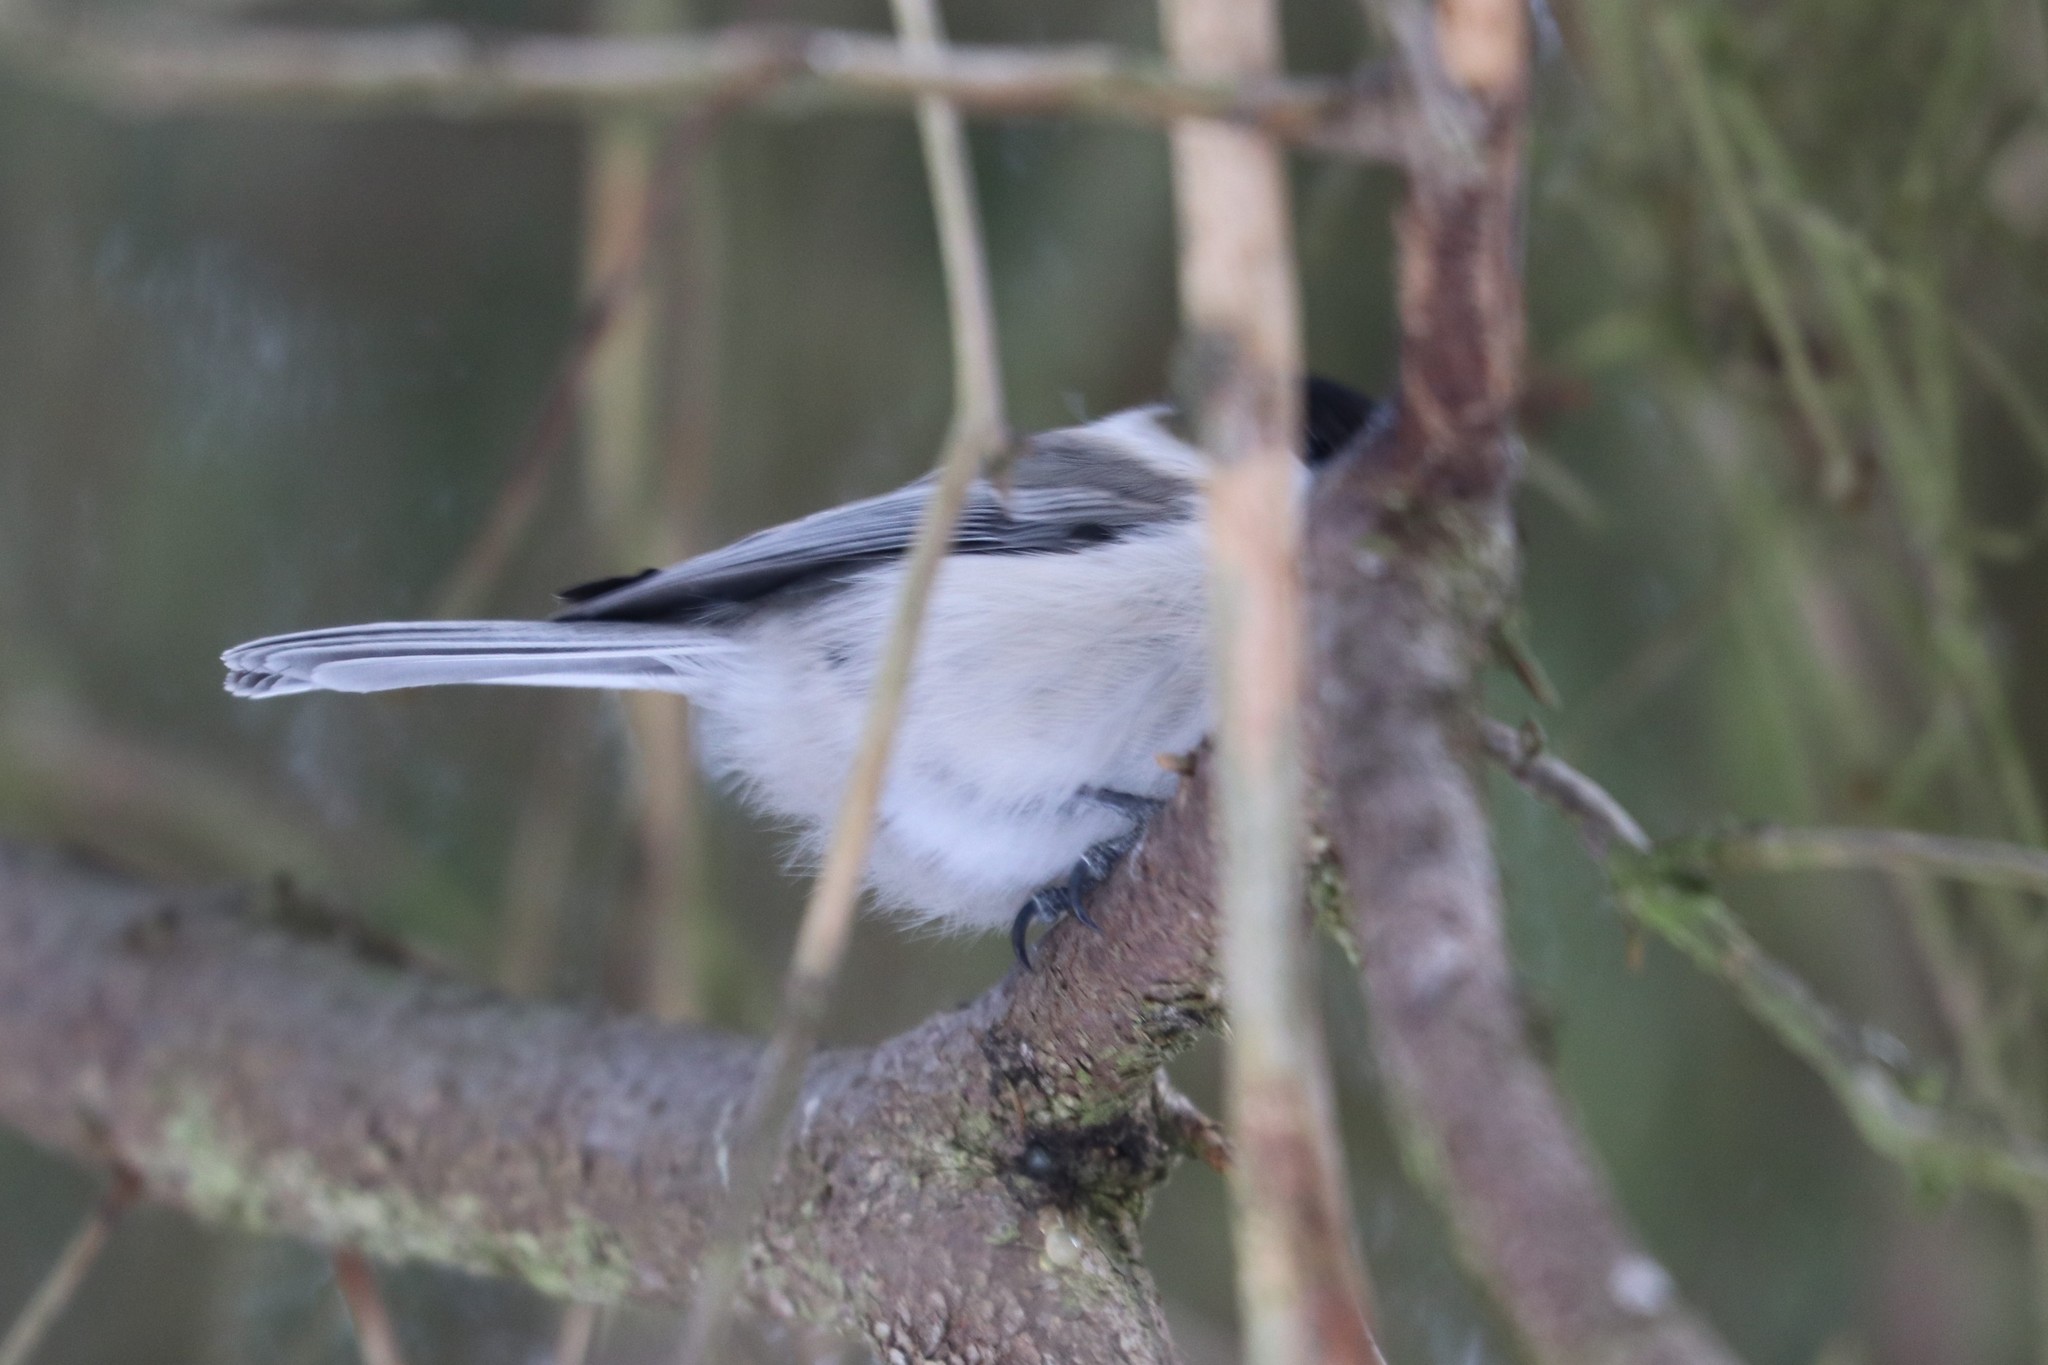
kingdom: Animalia
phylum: Chordata
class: Aves
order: Passeriformes
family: Paridae
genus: Poecile
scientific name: Poecile montanus
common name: Willow tit
